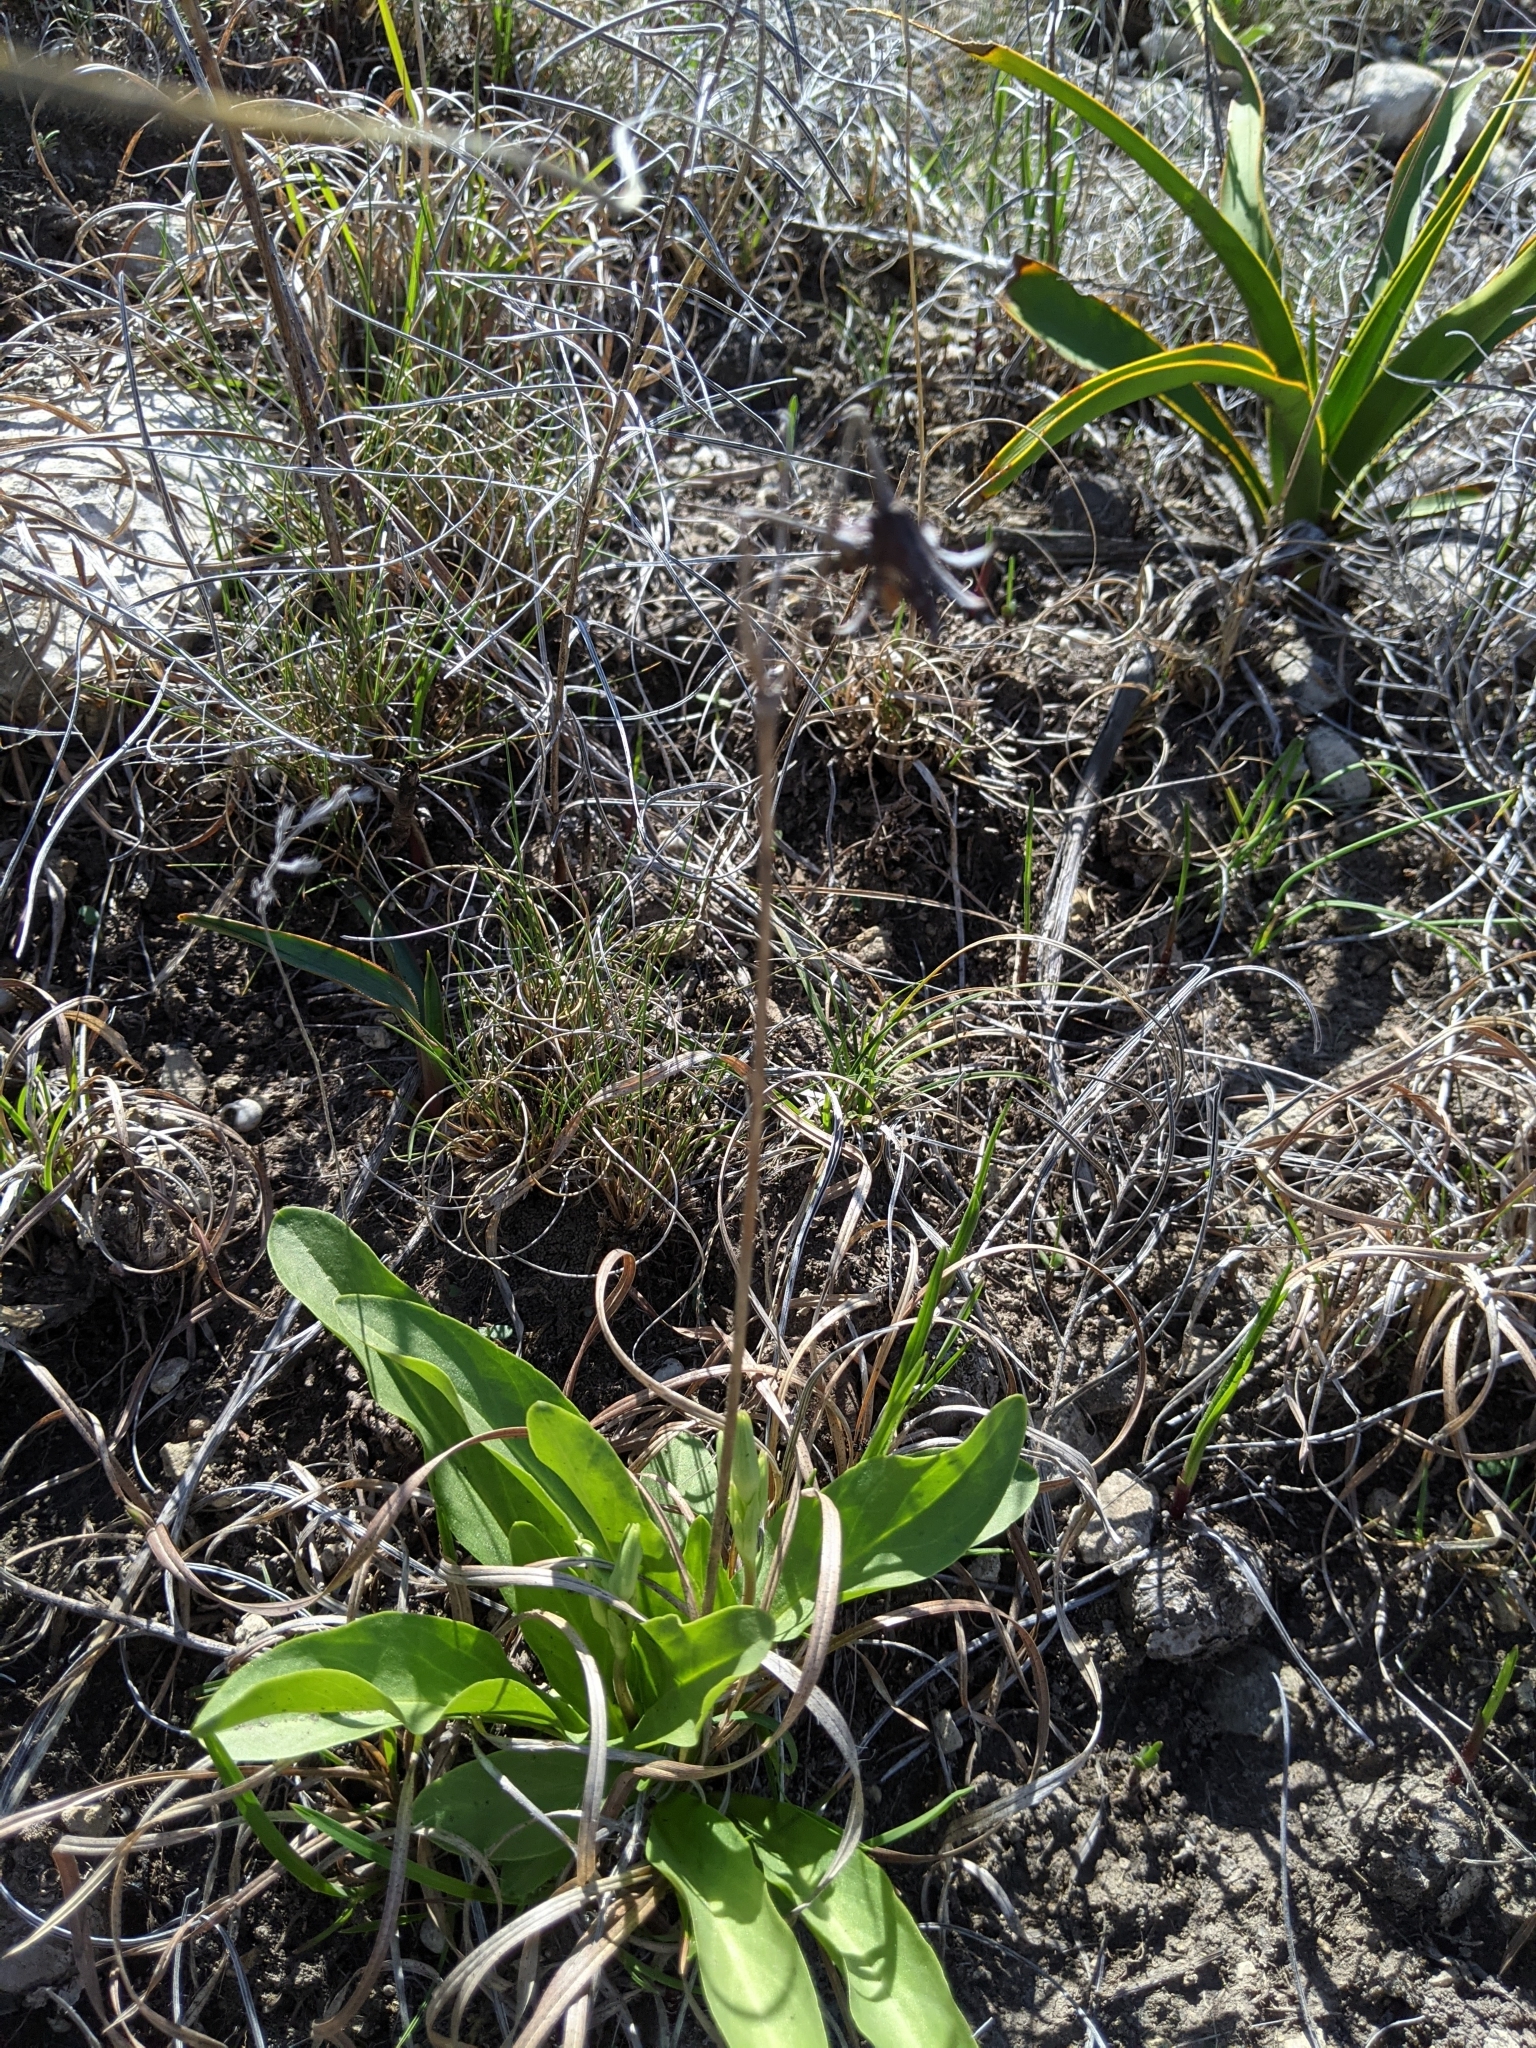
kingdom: Plantae
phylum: Tracheophyta
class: Magnoliopsida
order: Ericales
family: Primulaceae
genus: Dodecatheon
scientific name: Dodecatheon meadia
